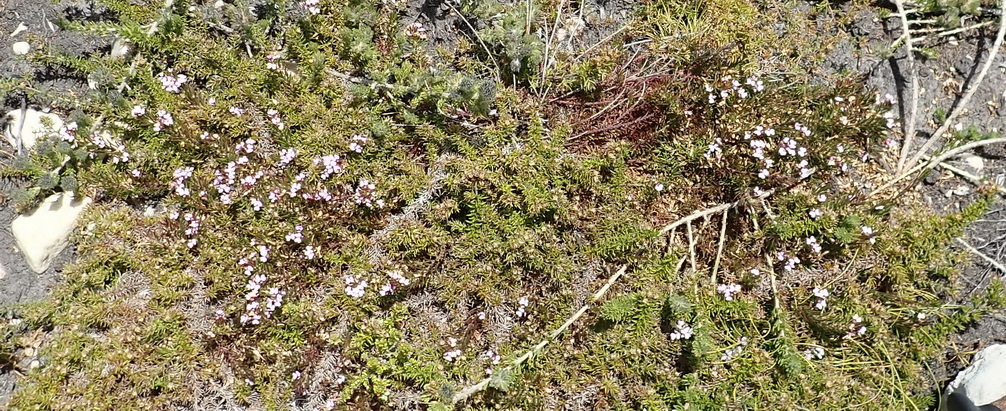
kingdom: Plantae
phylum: Tracheophyta
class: Magnoliopsida
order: Fabales
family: Polygalaceae
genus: Muraltia
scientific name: Muraltia knysnaensis
